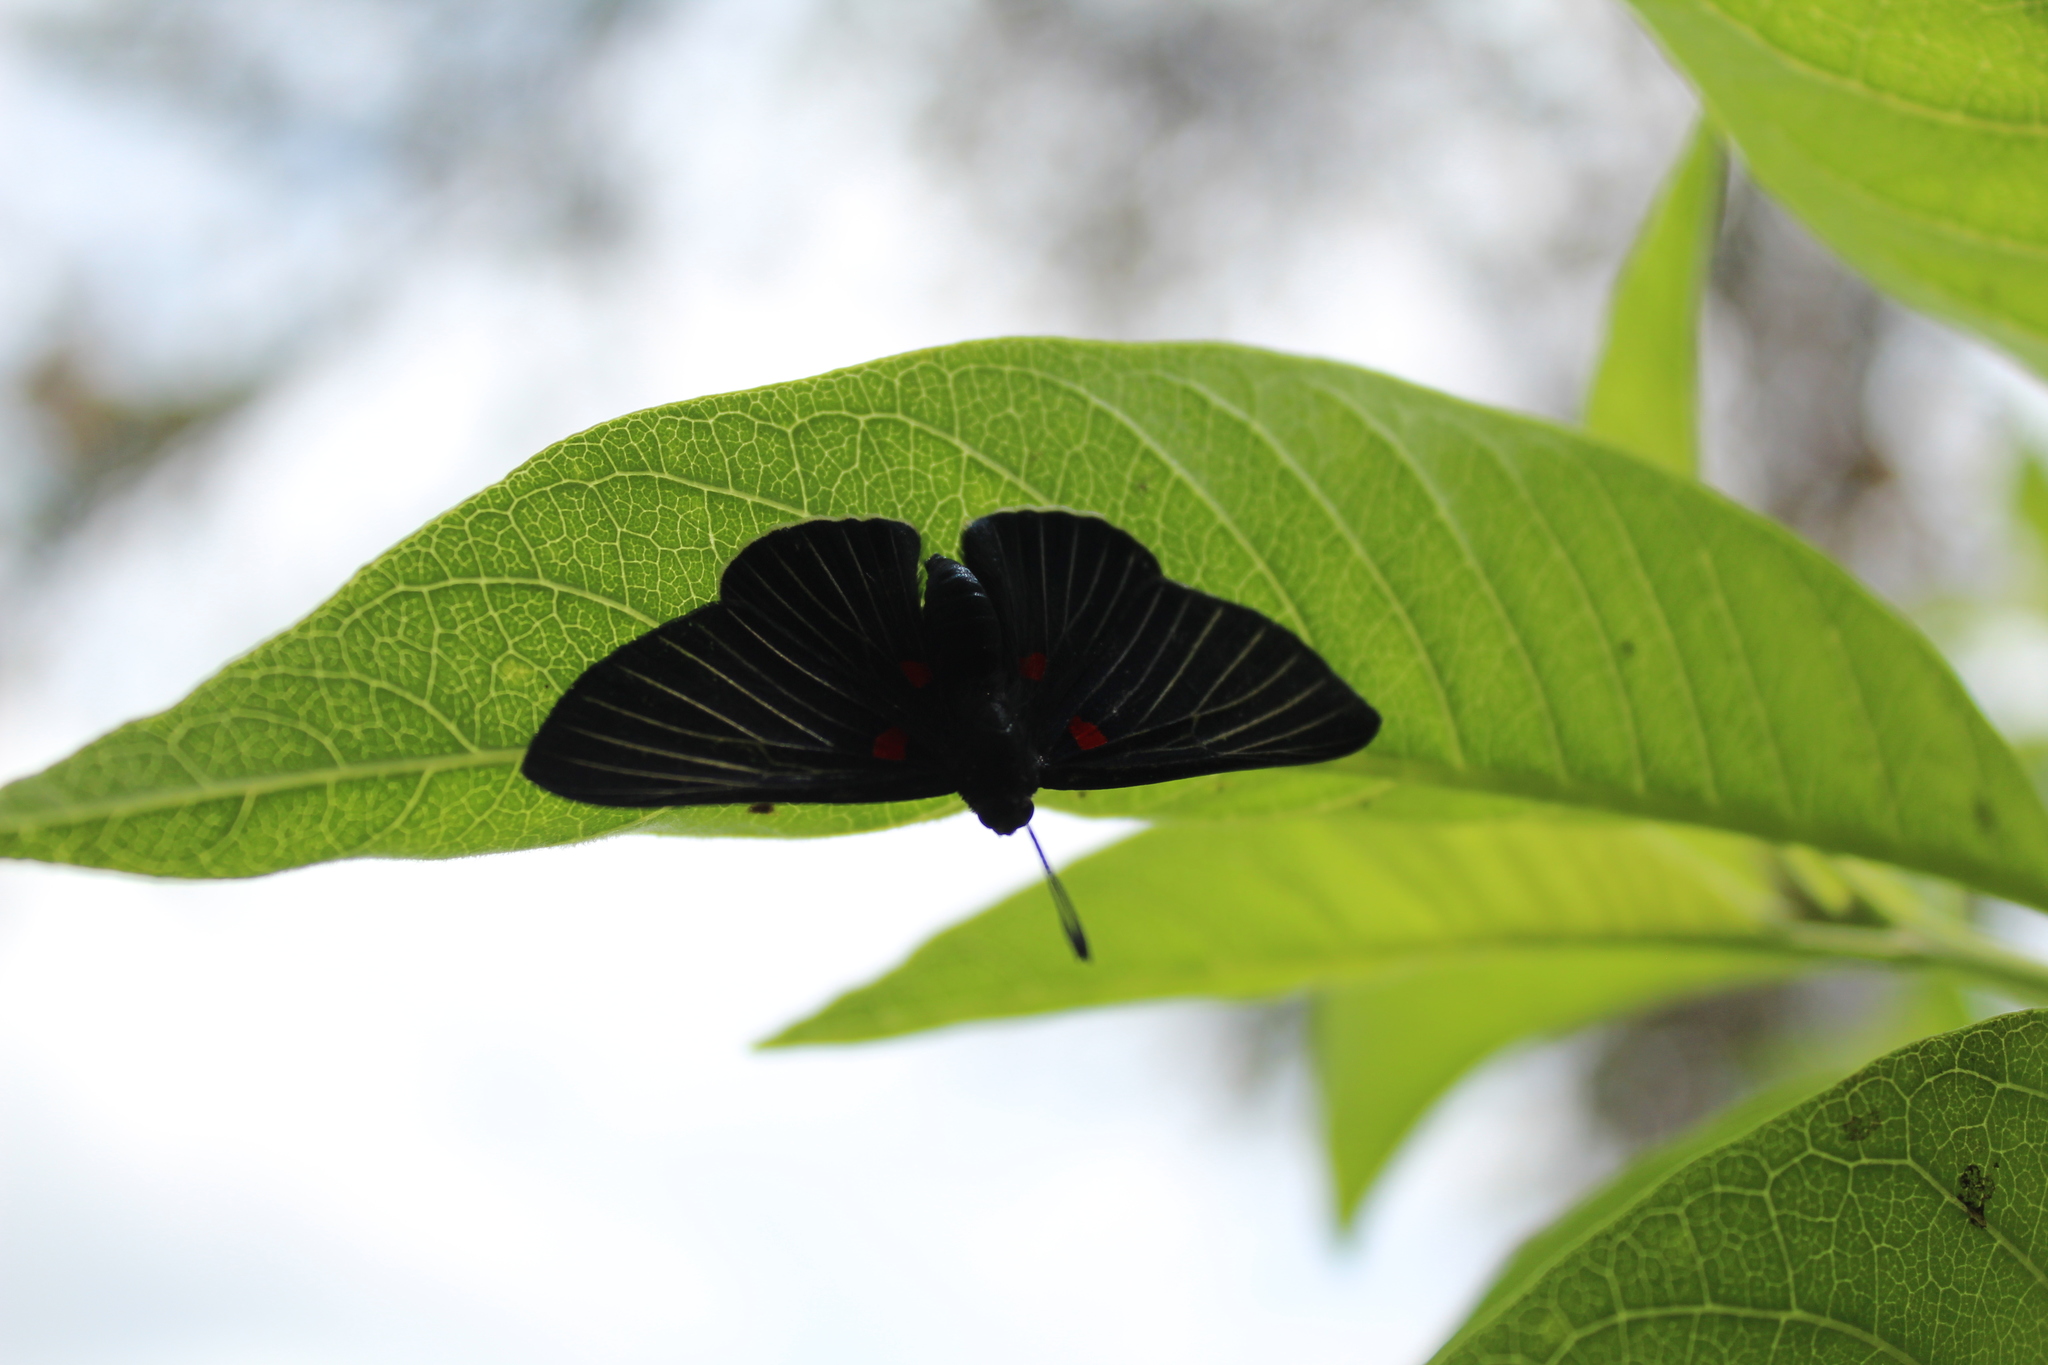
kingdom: Animalia
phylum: Arthropoda
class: Insecta
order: Lepidoptera
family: Lycaenidae
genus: Melanis
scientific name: Melanis
